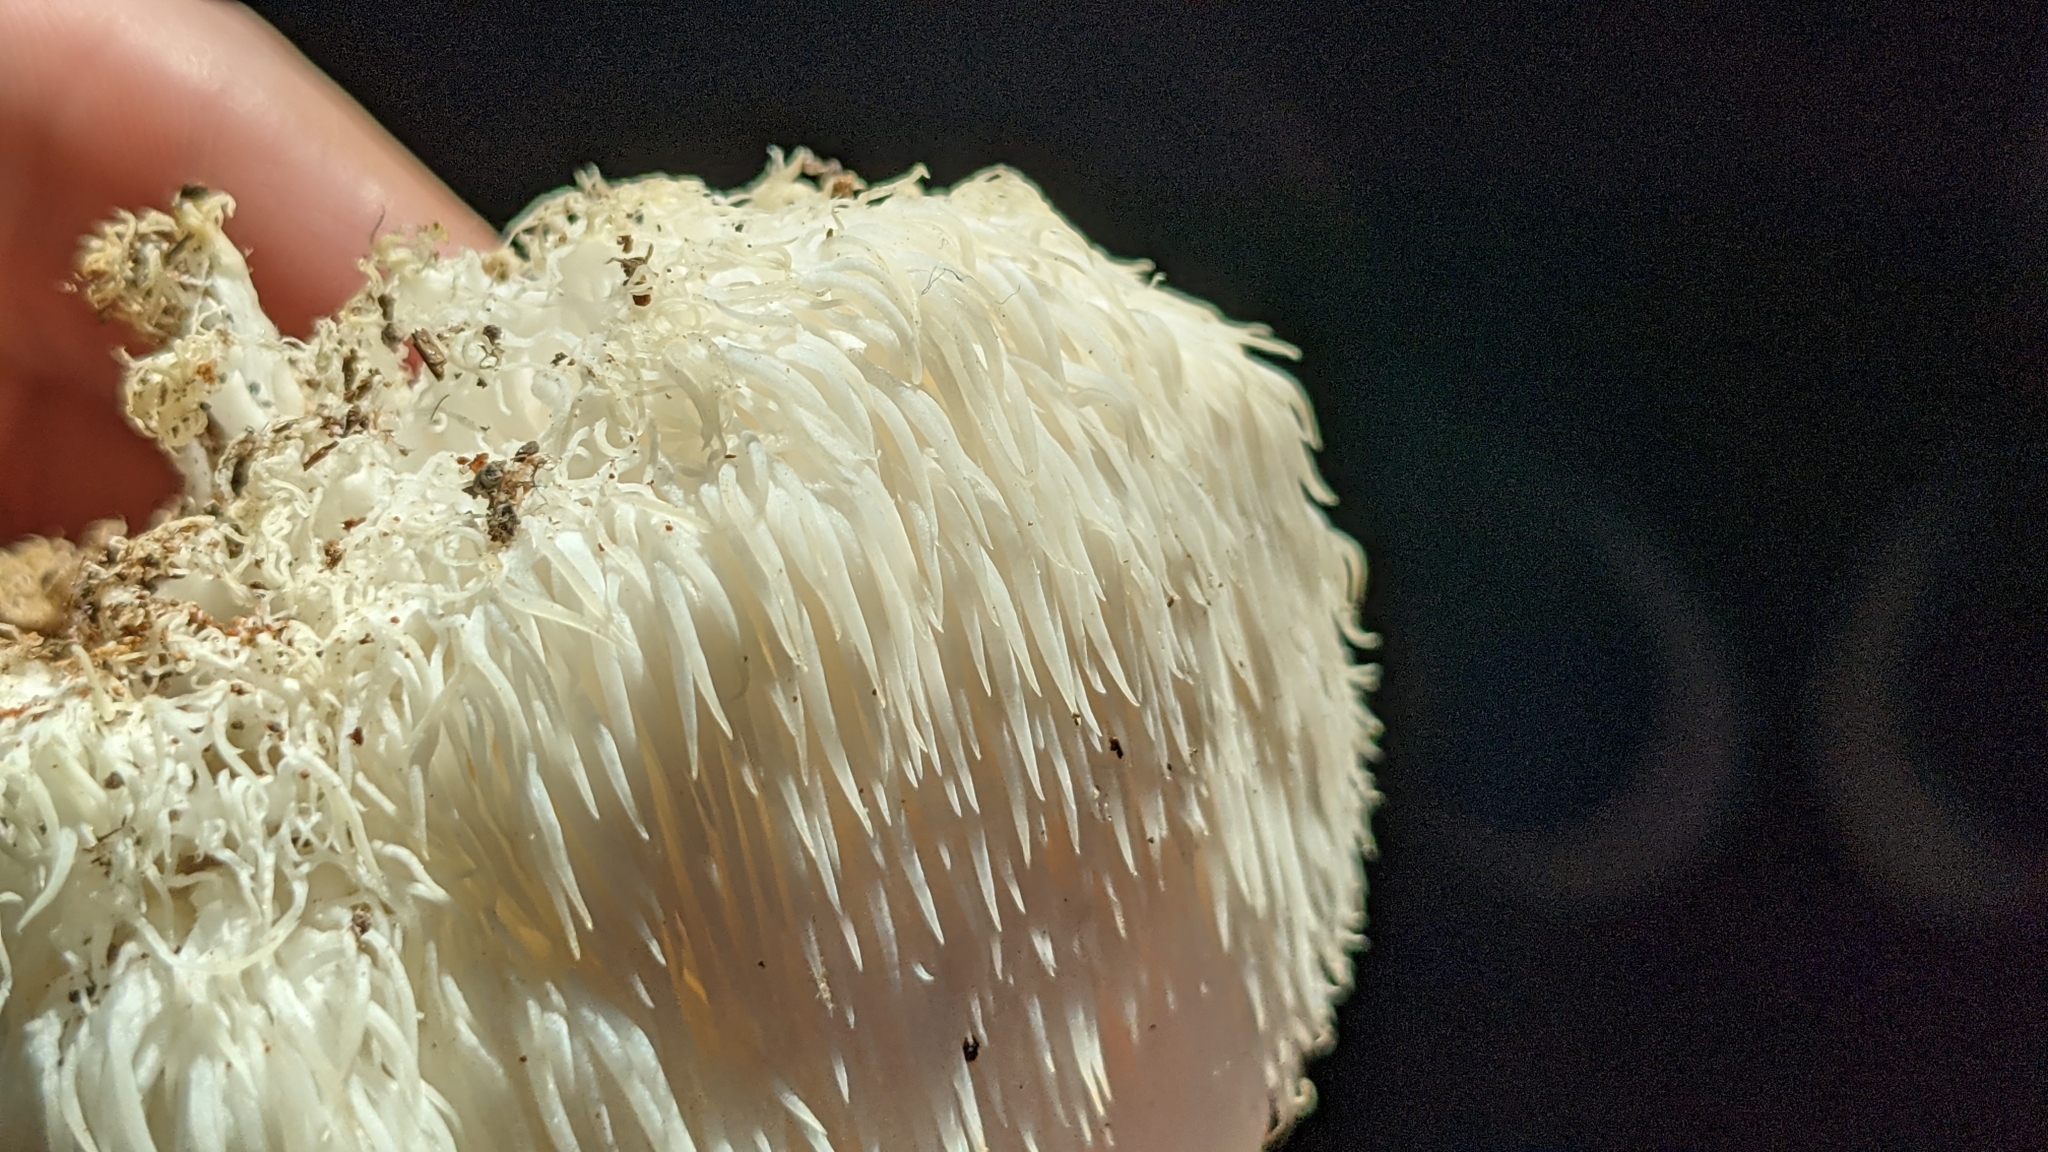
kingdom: Fungi
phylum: Basidiomycota
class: Agaricomycetes
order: Russulales
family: Hericiaceae
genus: Hericium
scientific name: Hericium erinaceus
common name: Bearded tooth
